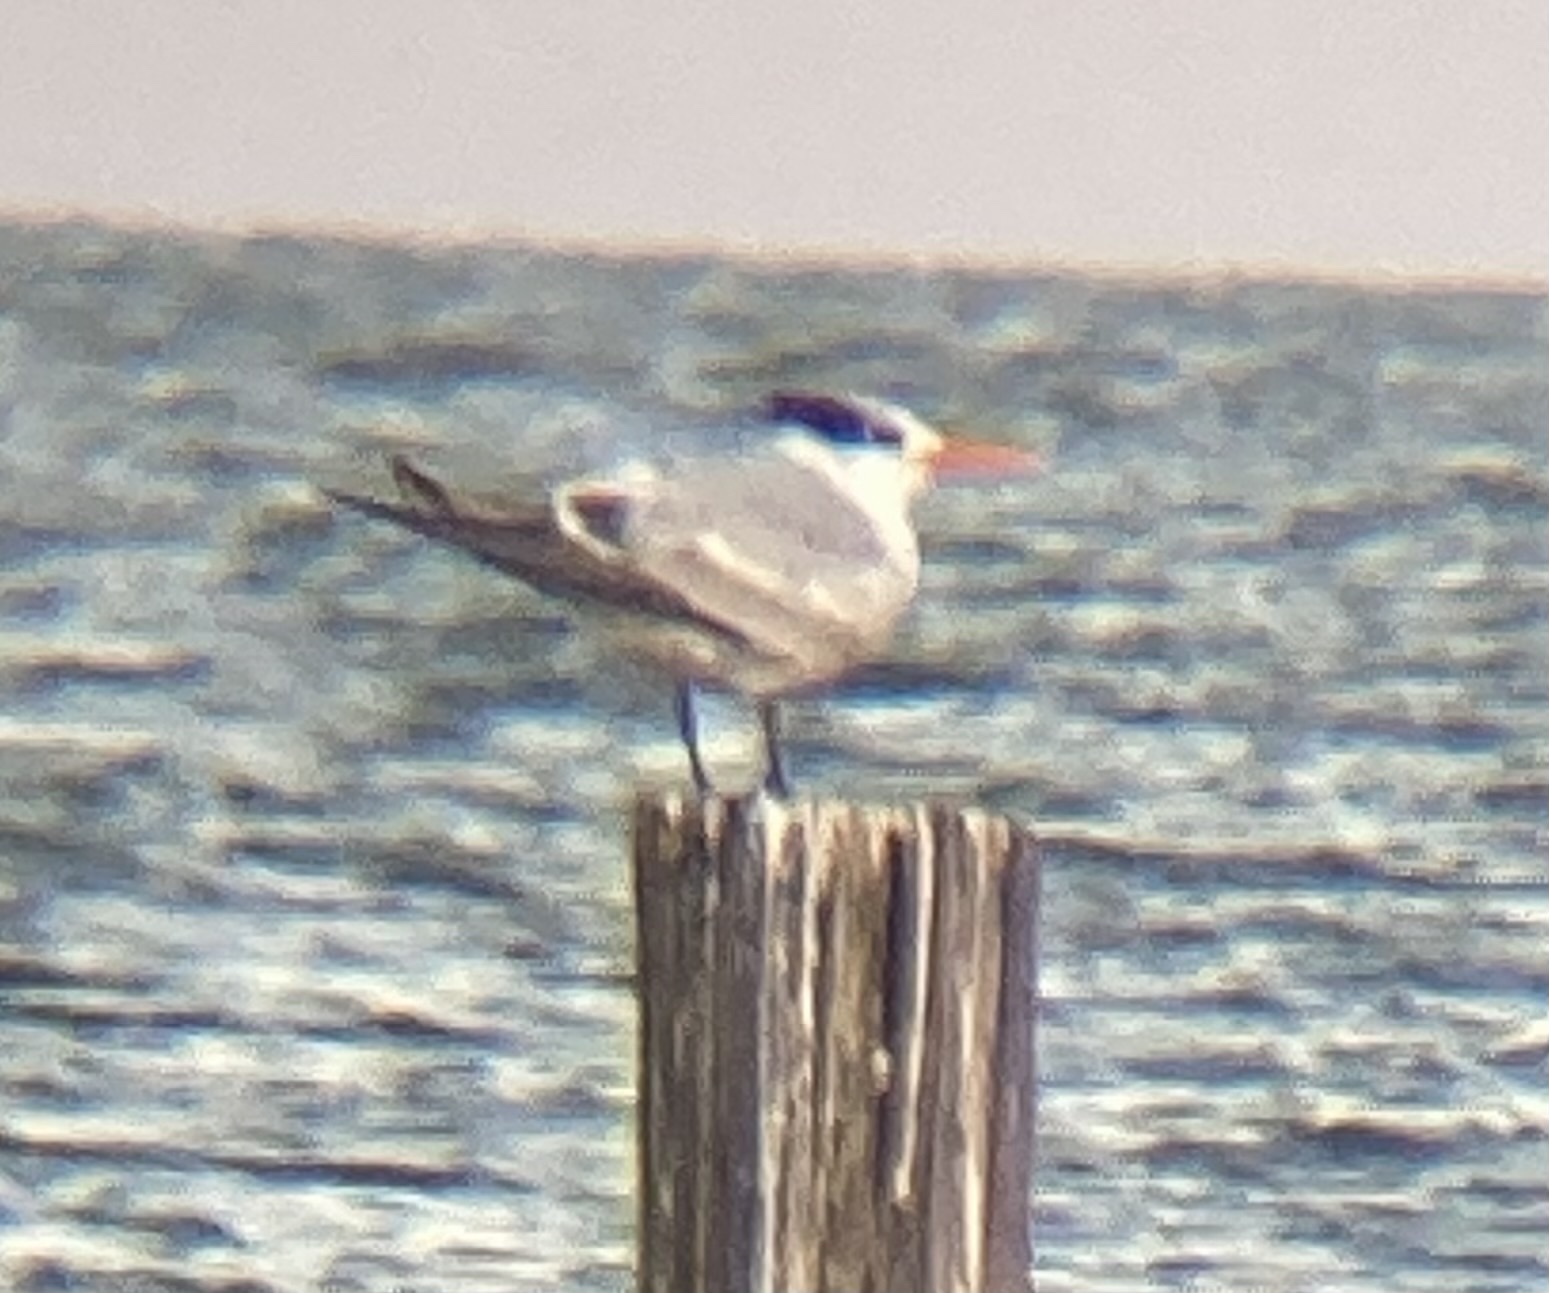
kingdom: Animalia
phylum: Chordata
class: Aves
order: Charadriiformes
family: Laridae
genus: Thalasseus
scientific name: Thalasseus maximus
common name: Royal tern
